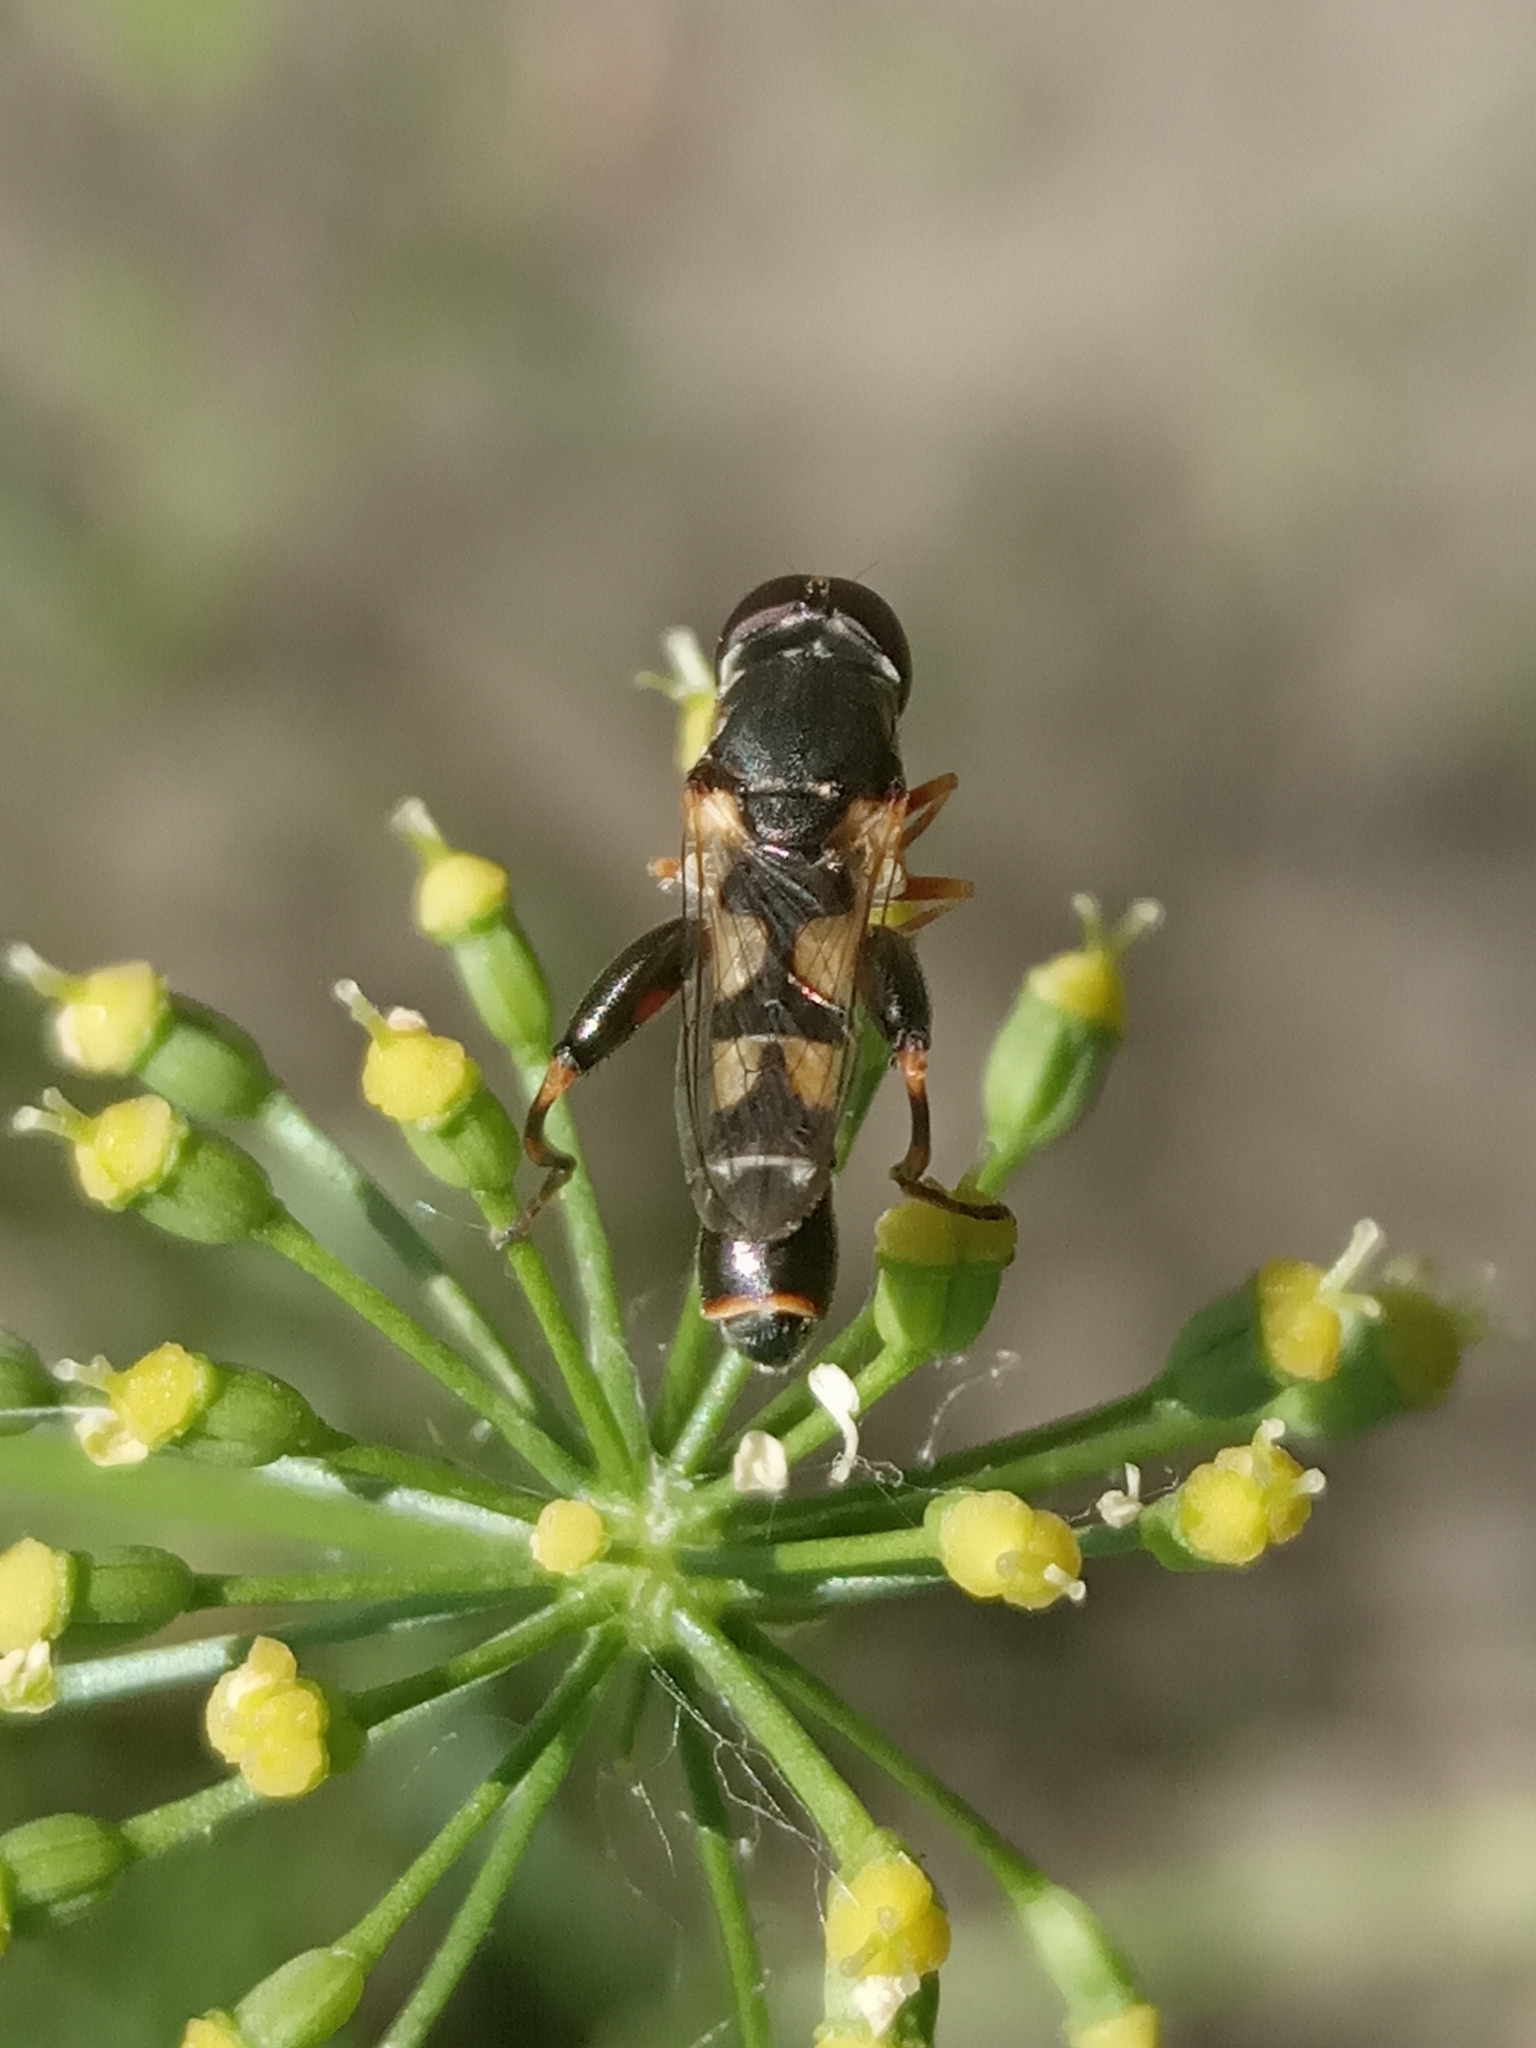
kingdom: Animalia
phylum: Arthropoda
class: Insecta
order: Diptera
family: Syrphidae
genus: Syritta
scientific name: Syritta pipiens
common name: Hover fly
